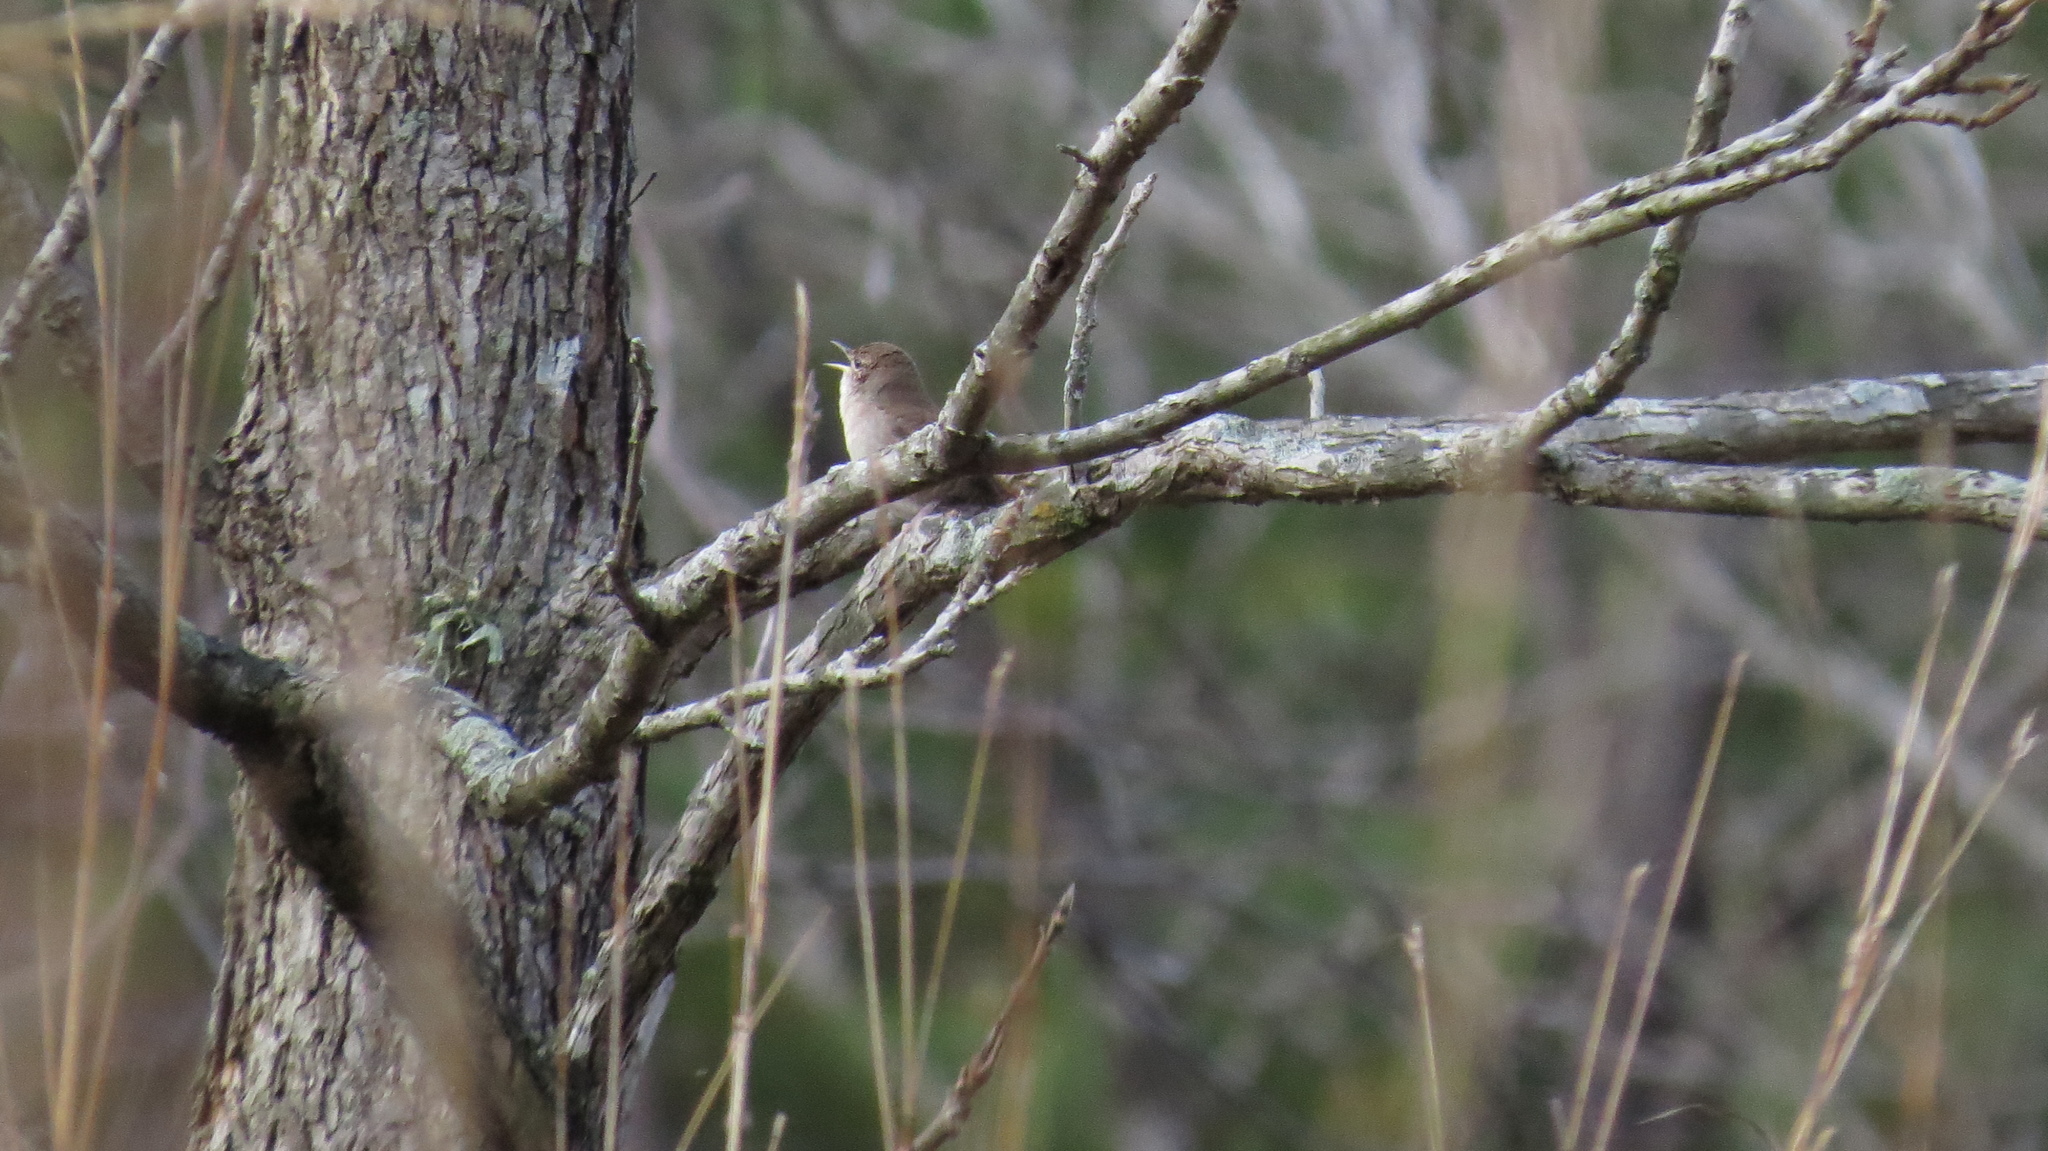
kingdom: Animalia
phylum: Chordata
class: Aves
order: Passeriformes
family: Troglodytidae
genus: Troglodytes
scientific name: Troglodytes aedon
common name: House wren
